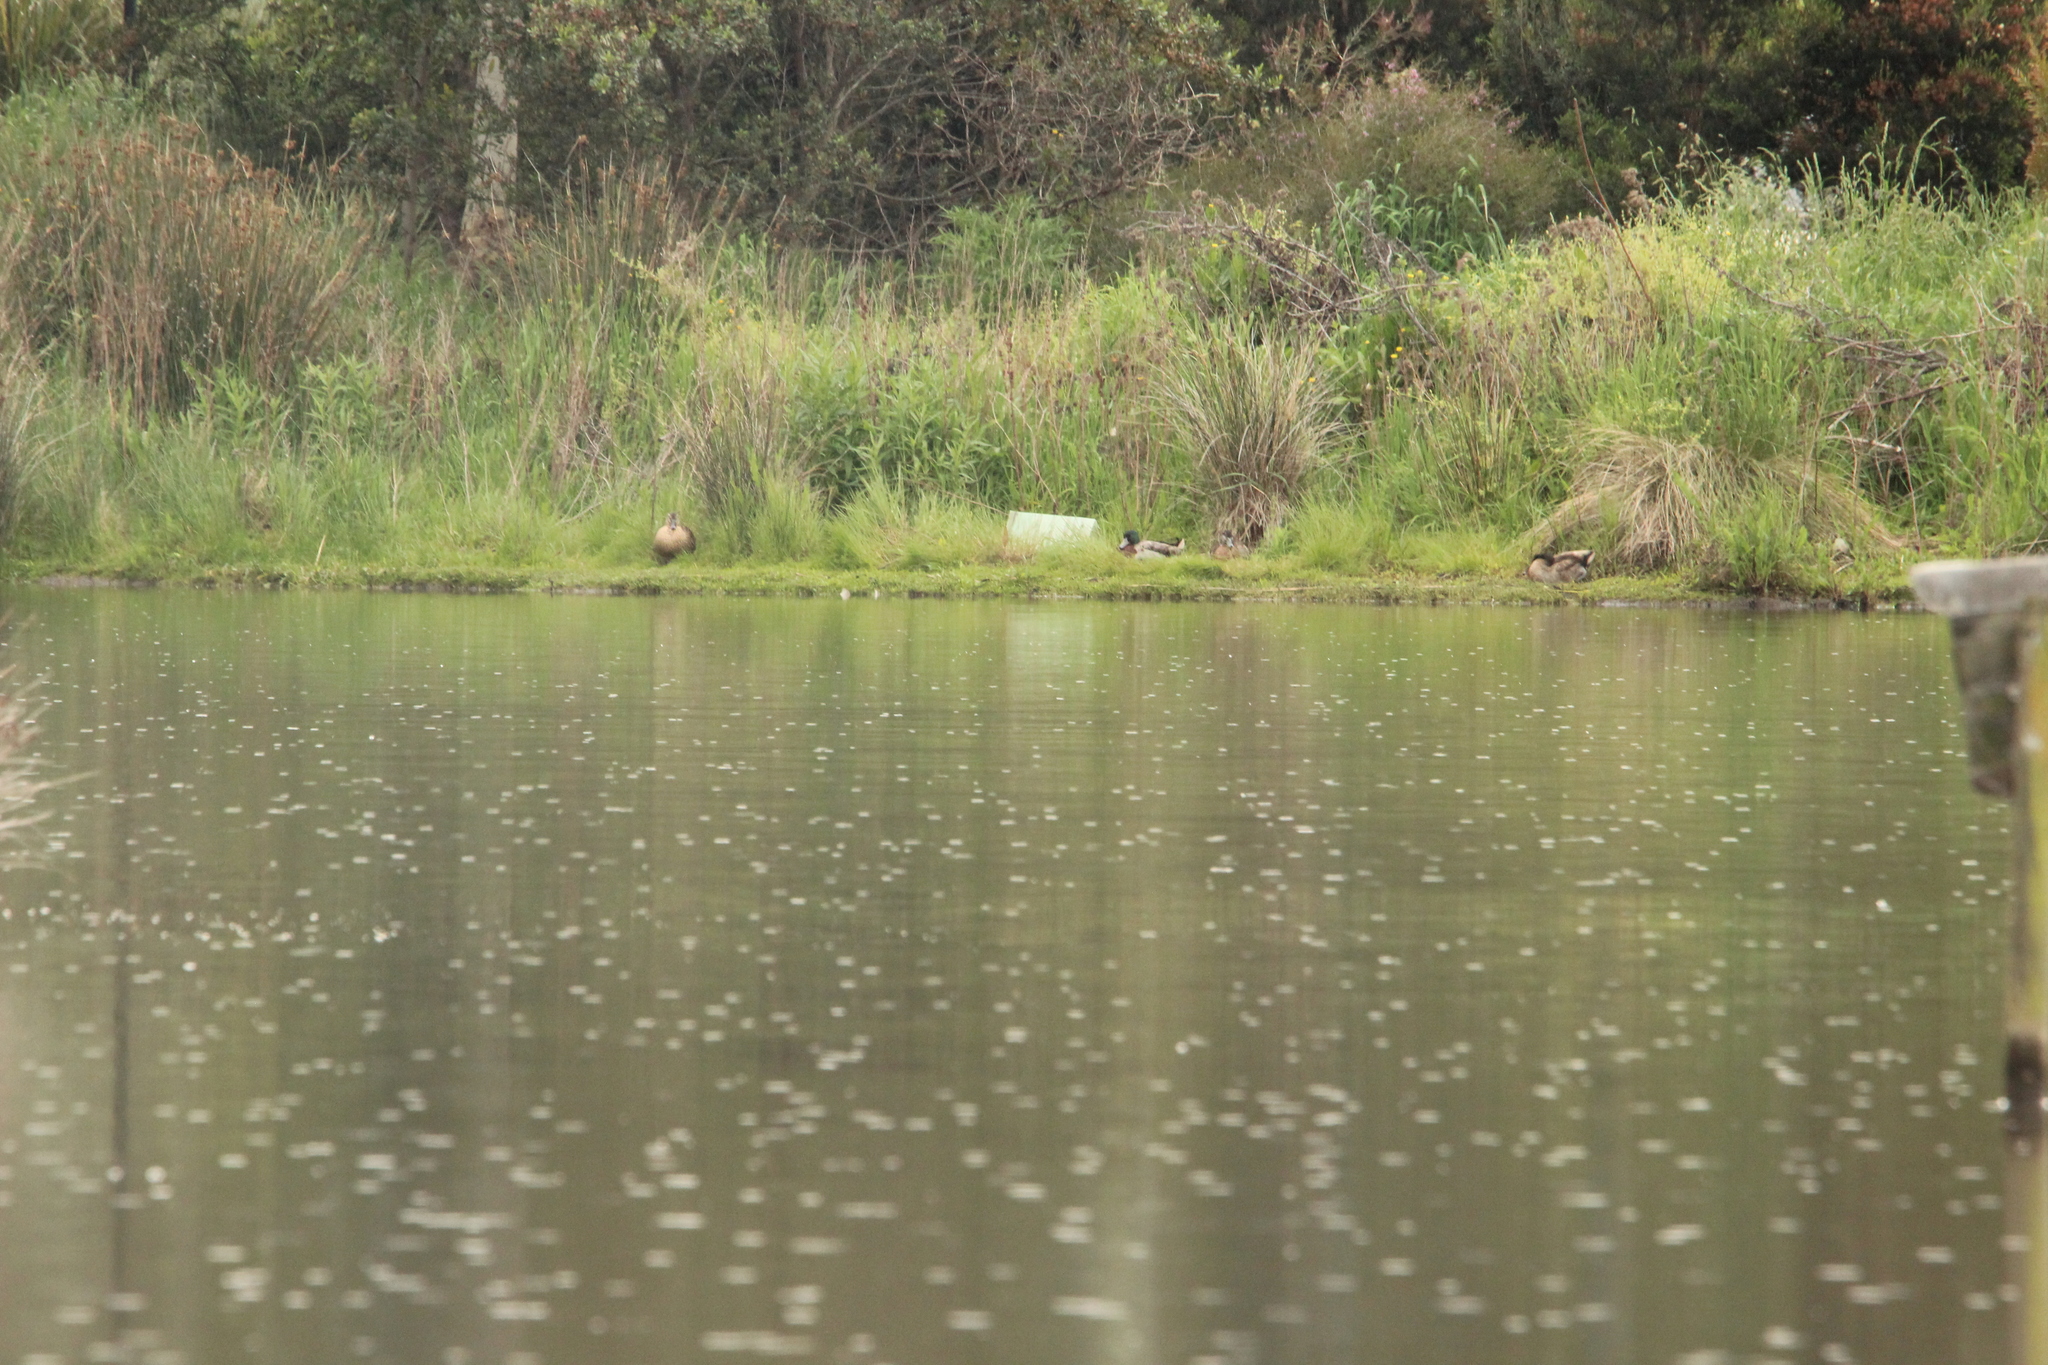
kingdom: Animalia
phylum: Chordata
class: Aves
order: Anseriformes
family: Anatidae
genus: Anas
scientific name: Anas platyrhynchos
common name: Mallard
